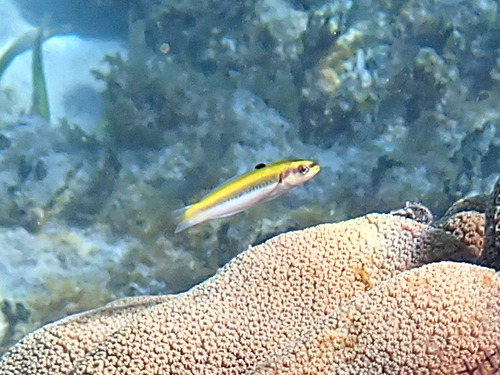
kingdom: Animalia
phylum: Chordata
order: Perciformes
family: Labridae
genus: Thalassoma
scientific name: Thalassoma bifasciatum
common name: Bluehead wrasse
